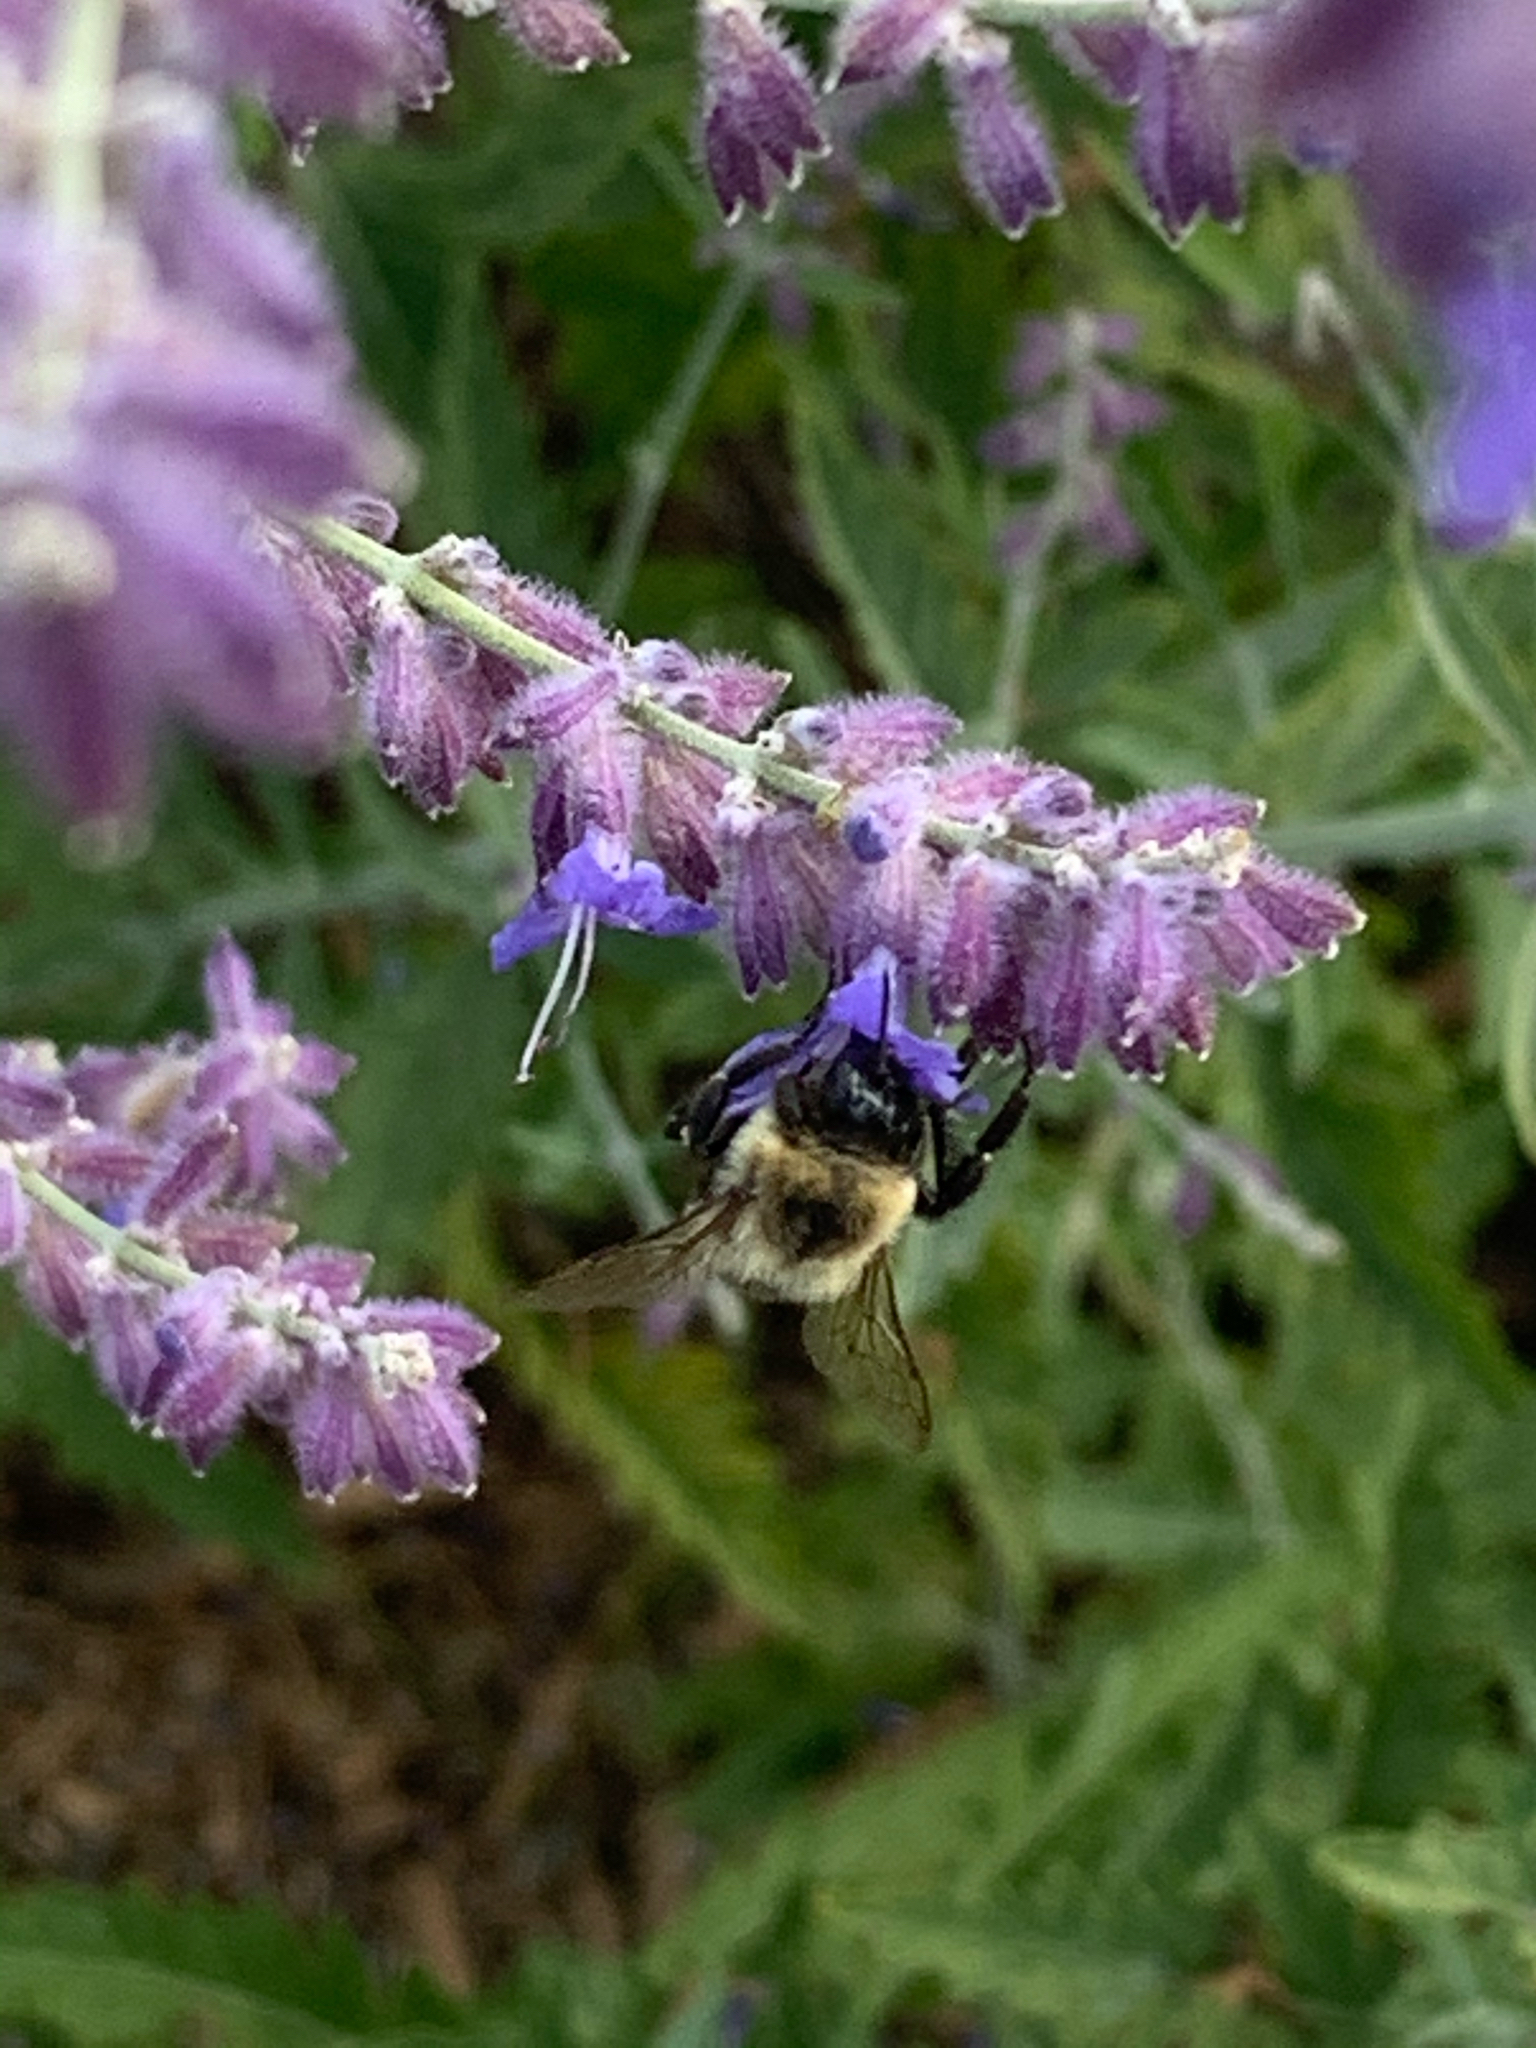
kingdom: Animalia
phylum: Arthropoda
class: Insecta
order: Hymenoptera
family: Apidae
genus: Bombus
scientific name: Bombus impatiens
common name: Common eastern bumble bee
